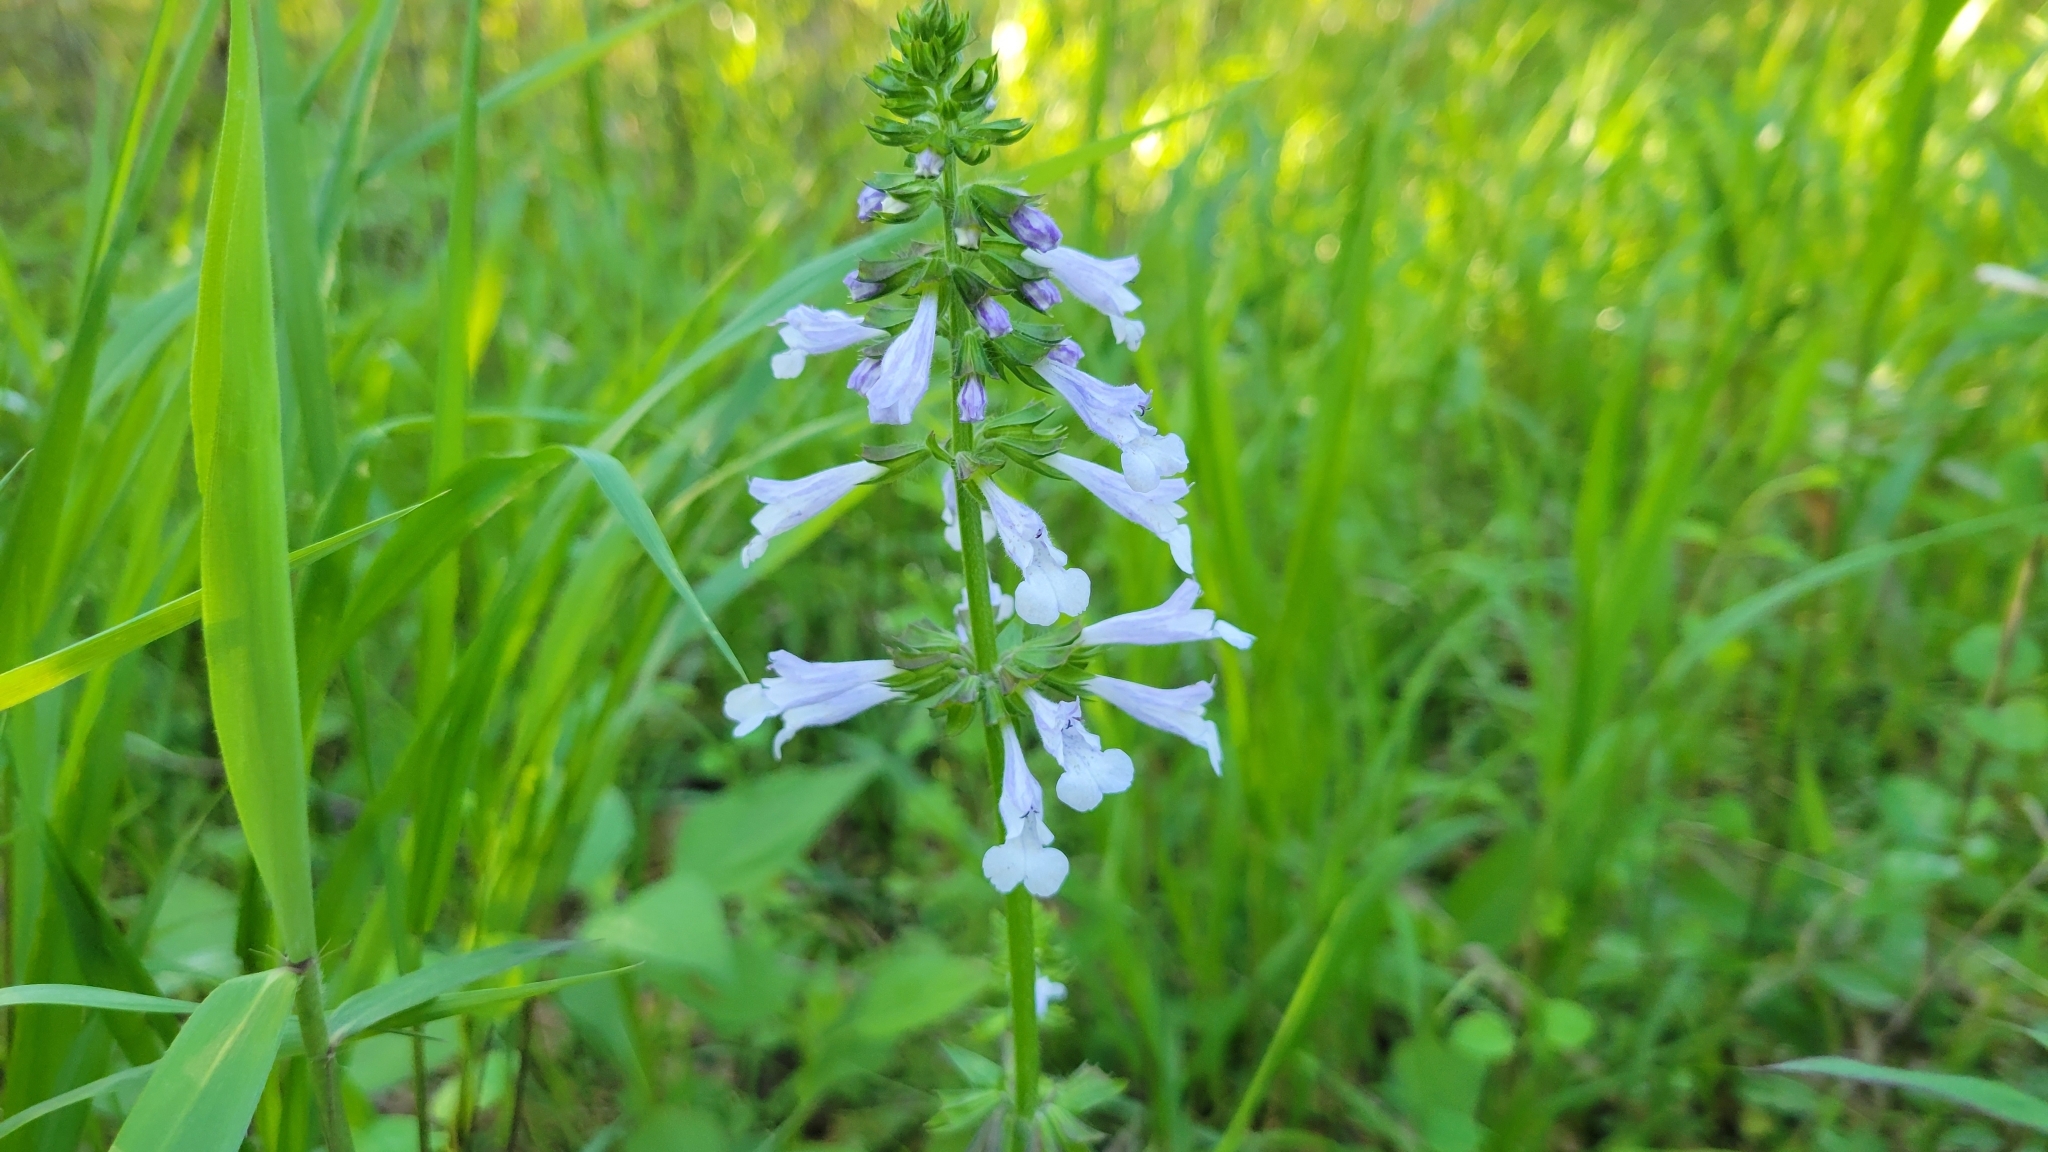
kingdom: Plantae
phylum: Tracheophyta
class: Magnoliopsida
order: Lamiales
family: Lamiaceae
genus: Salvia
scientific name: Salvia lyrata
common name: Cancerweed
